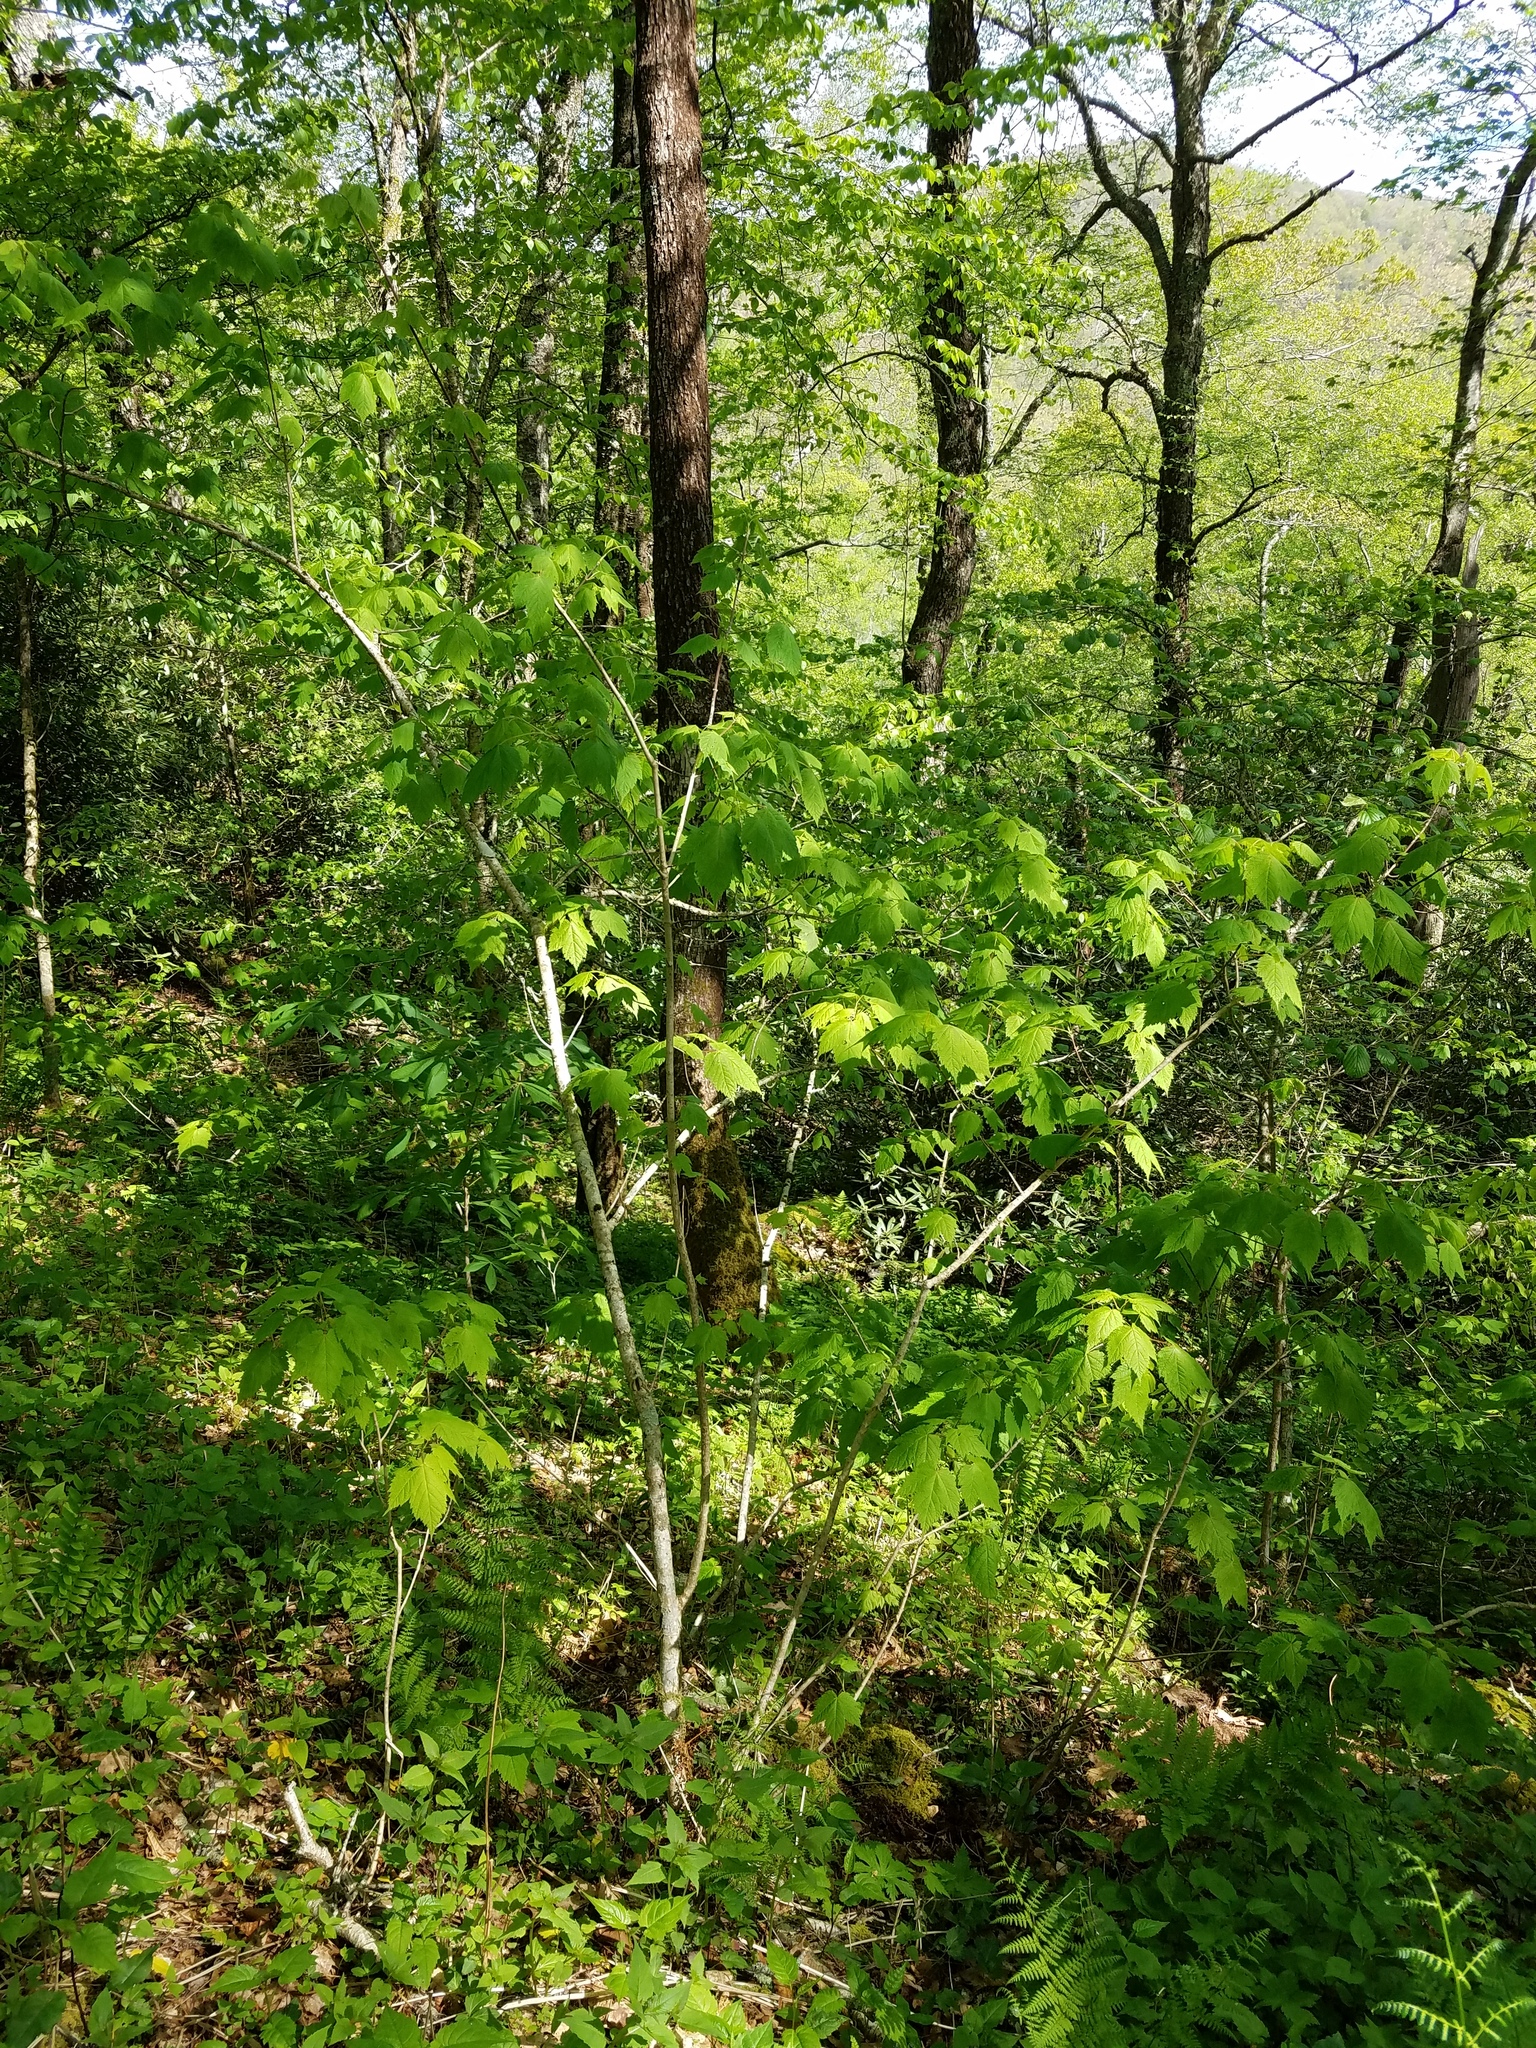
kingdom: Plantae
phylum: Tracheophyta
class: Magnoliopsida
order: Sapindales
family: Sapindaceae
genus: Acer
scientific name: Acer spicatum
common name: Mountain maple
